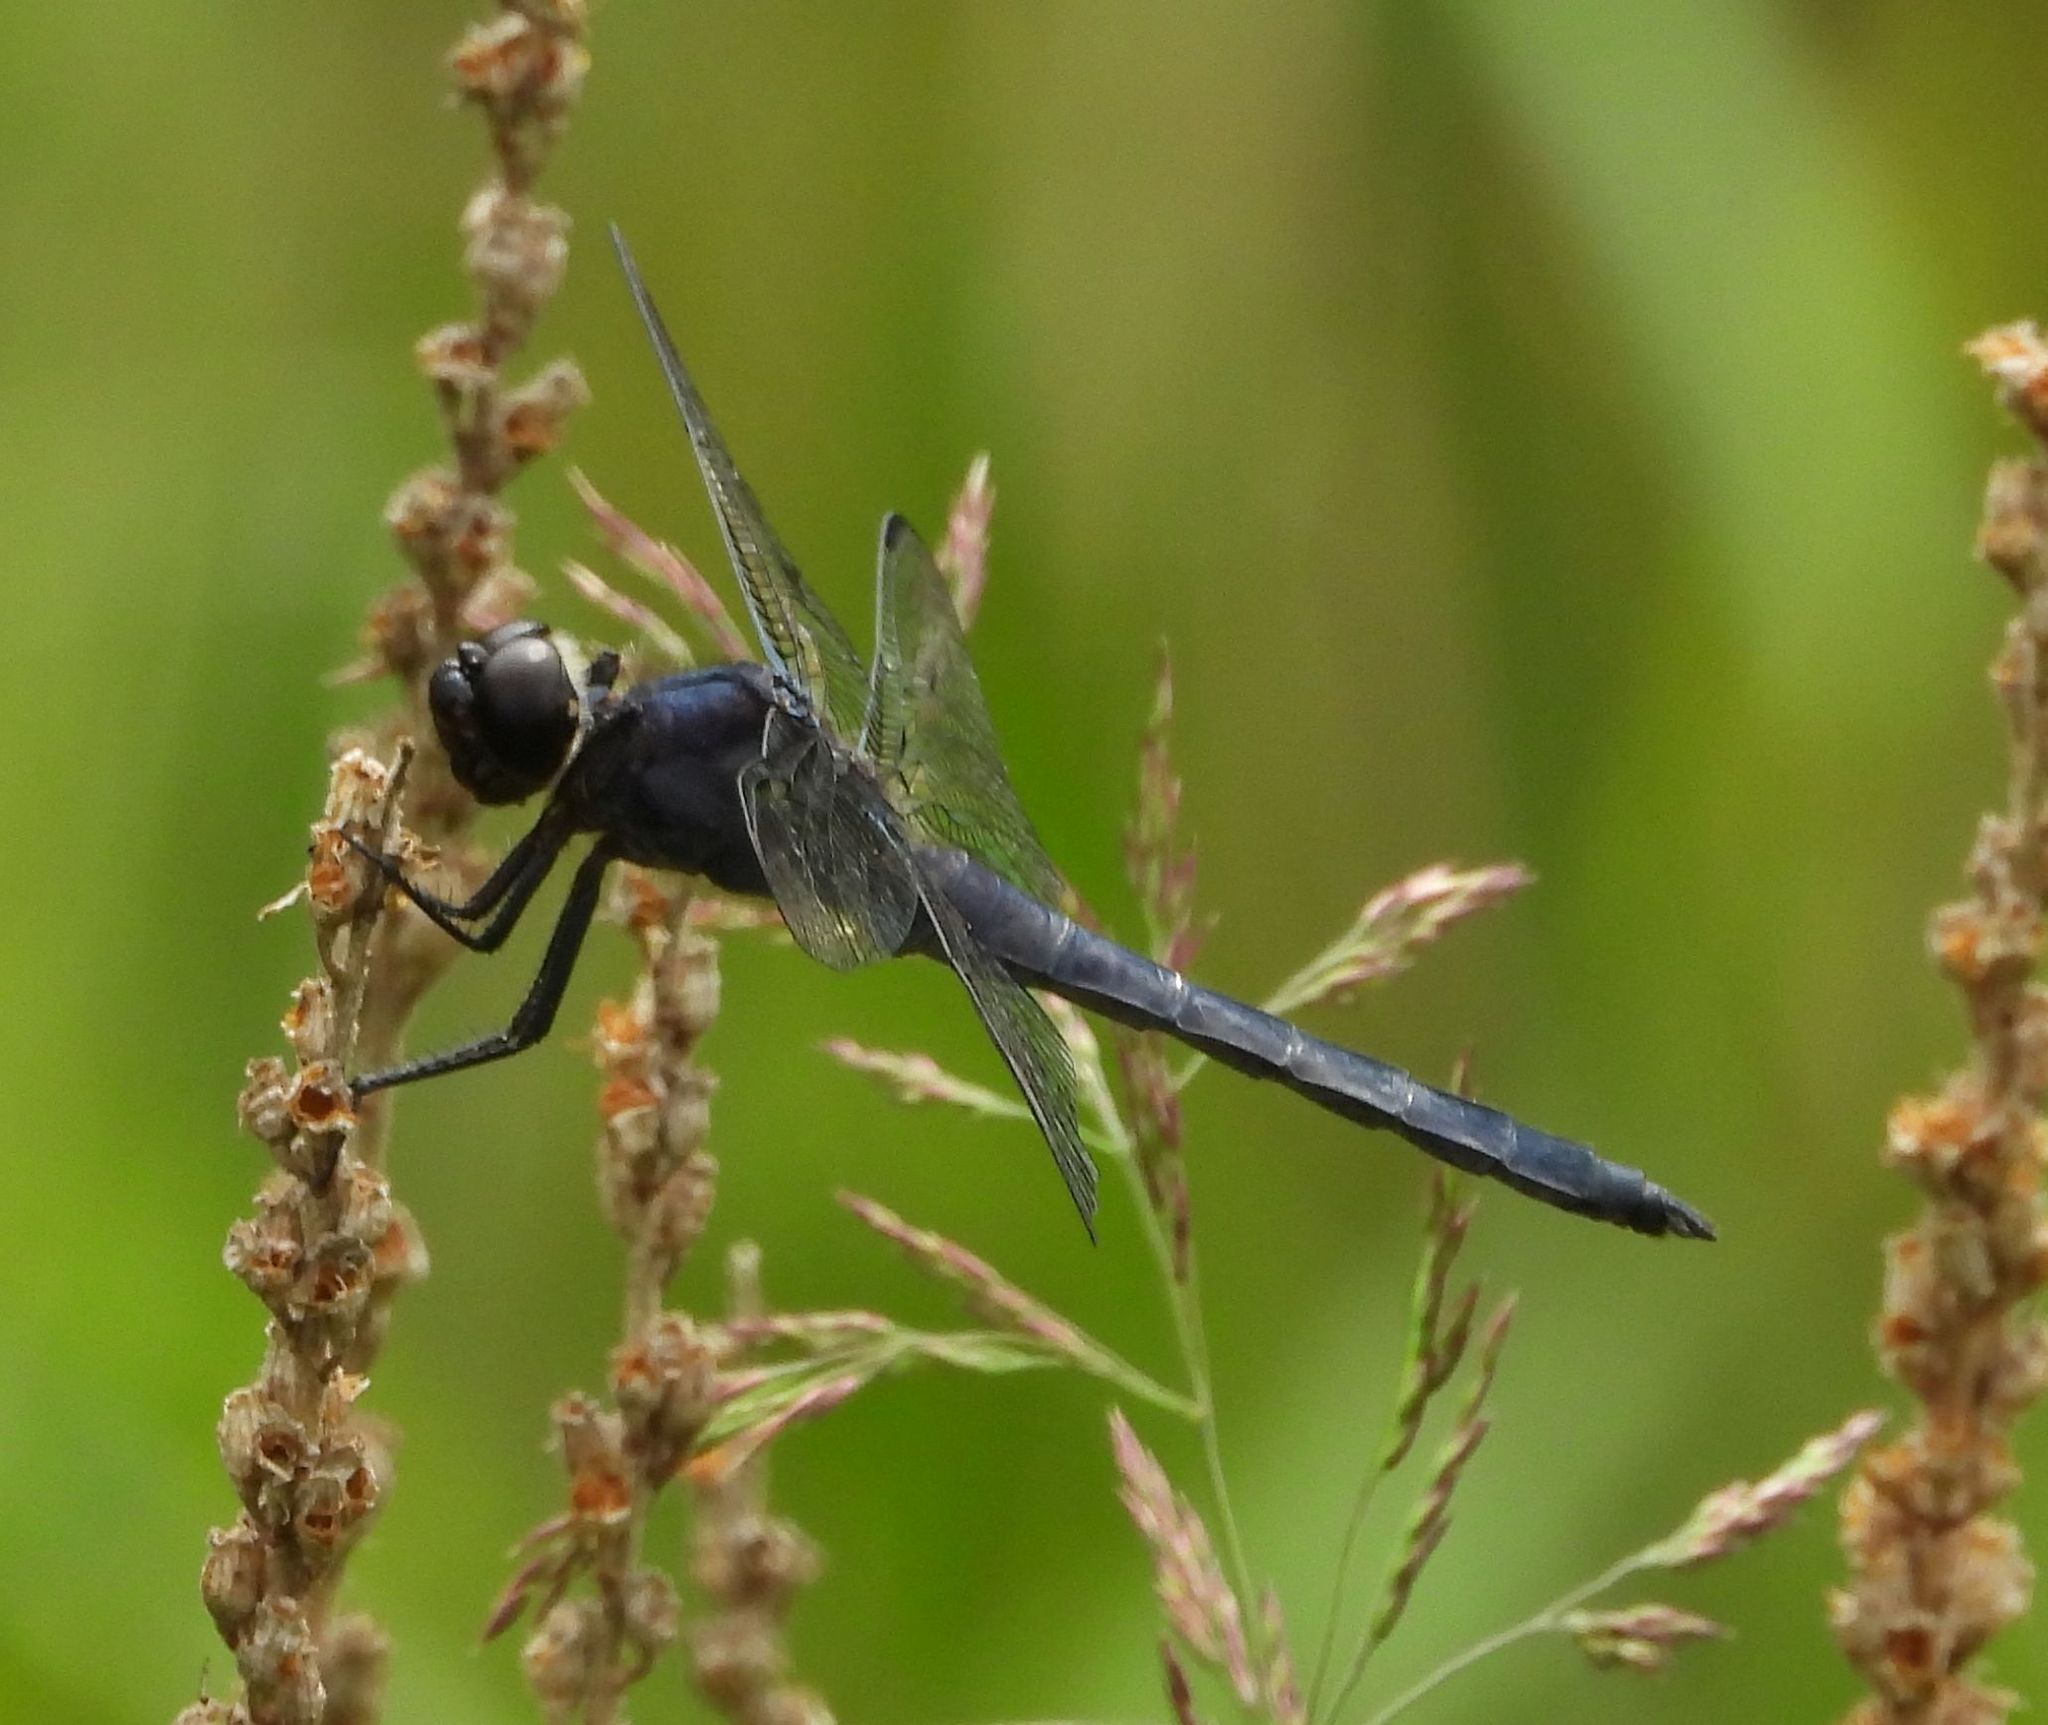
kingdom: Animalia
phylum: Arthropoda
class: Insecta
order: Odonata
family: Libellulidae
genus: Libellula
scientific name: Libellula incesta
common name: Slaty skimmer
